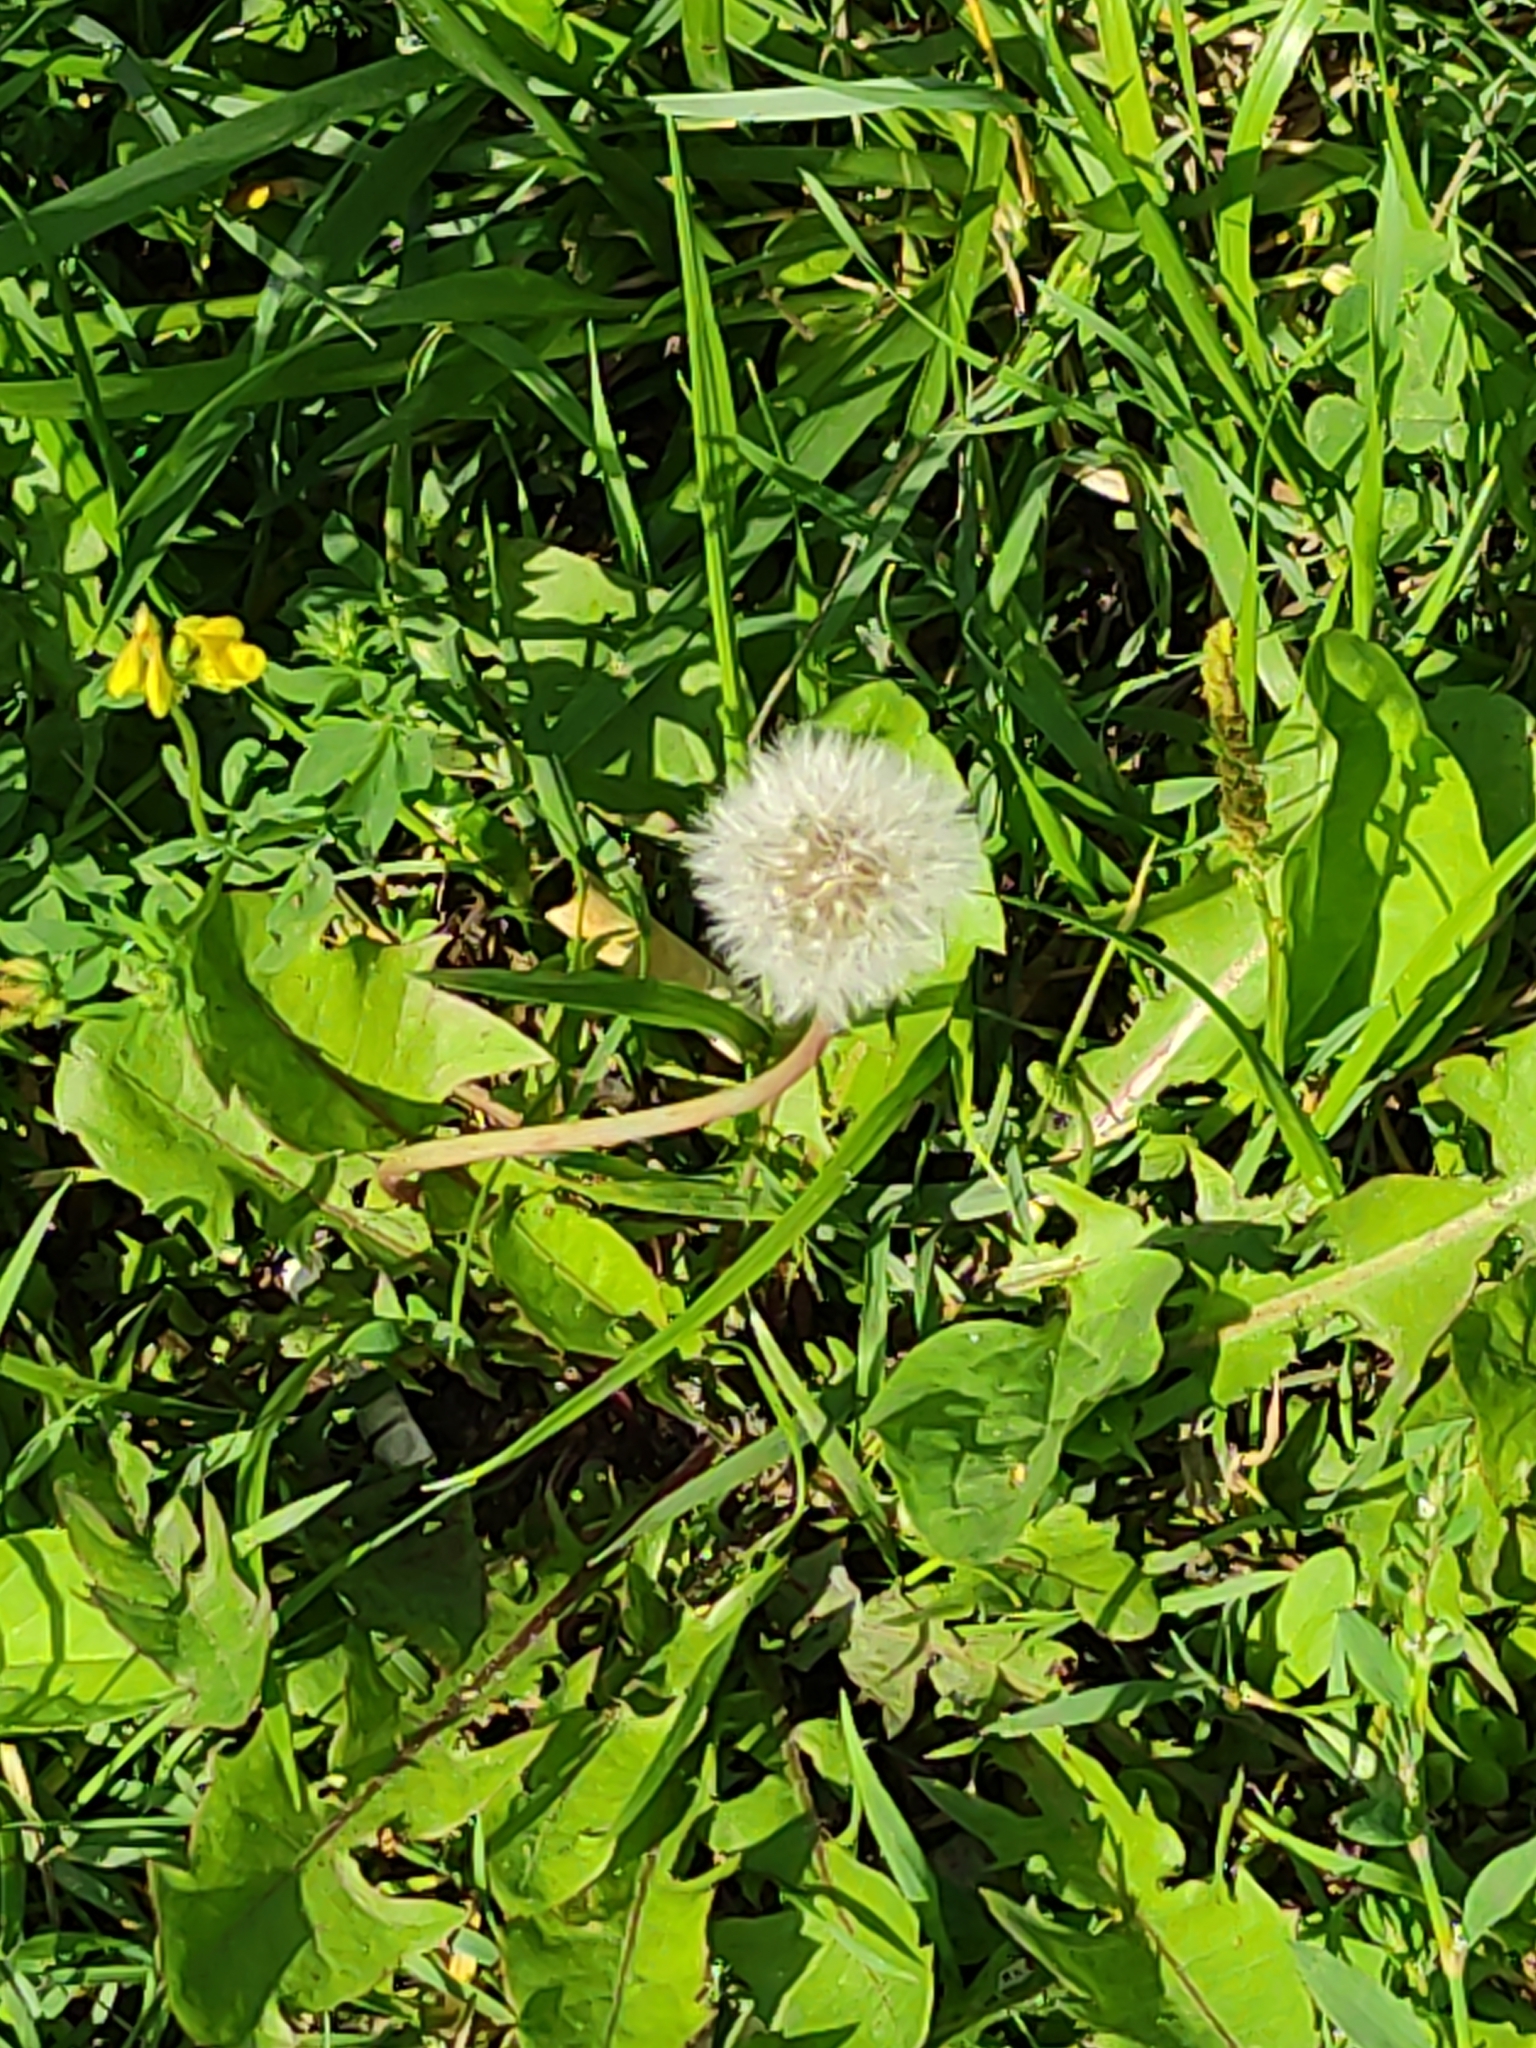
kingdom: Plantae
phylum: Tracheophyta
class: Magnoliopsida
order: Asterales
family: Asteraceae
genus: Taraxacum
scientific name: Taraxacum officinale
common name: Common dandelion
